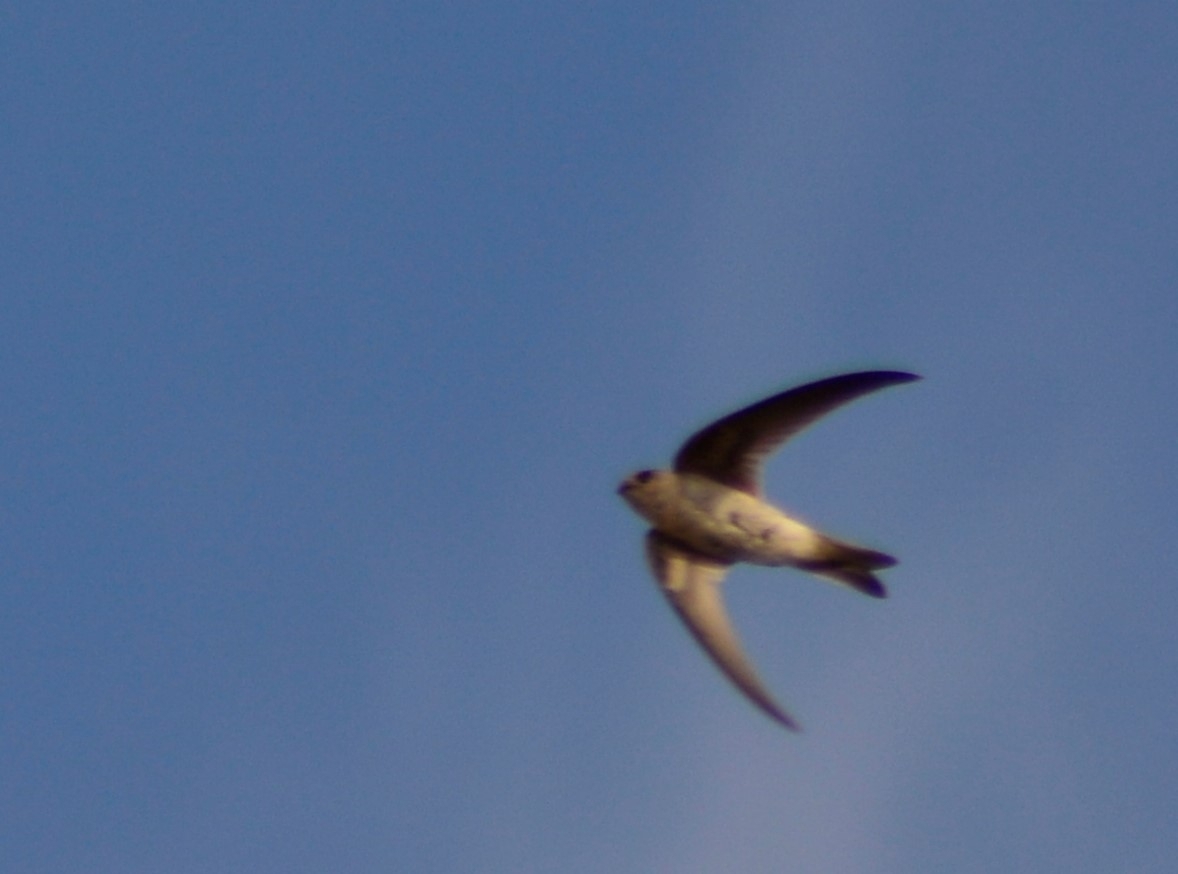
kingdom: Animalia
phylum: Chordata
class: Aves
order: Apodiformes
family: Apodidae
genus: Aeronautes
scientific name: Aeronautes andecolus
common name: Andean swift
